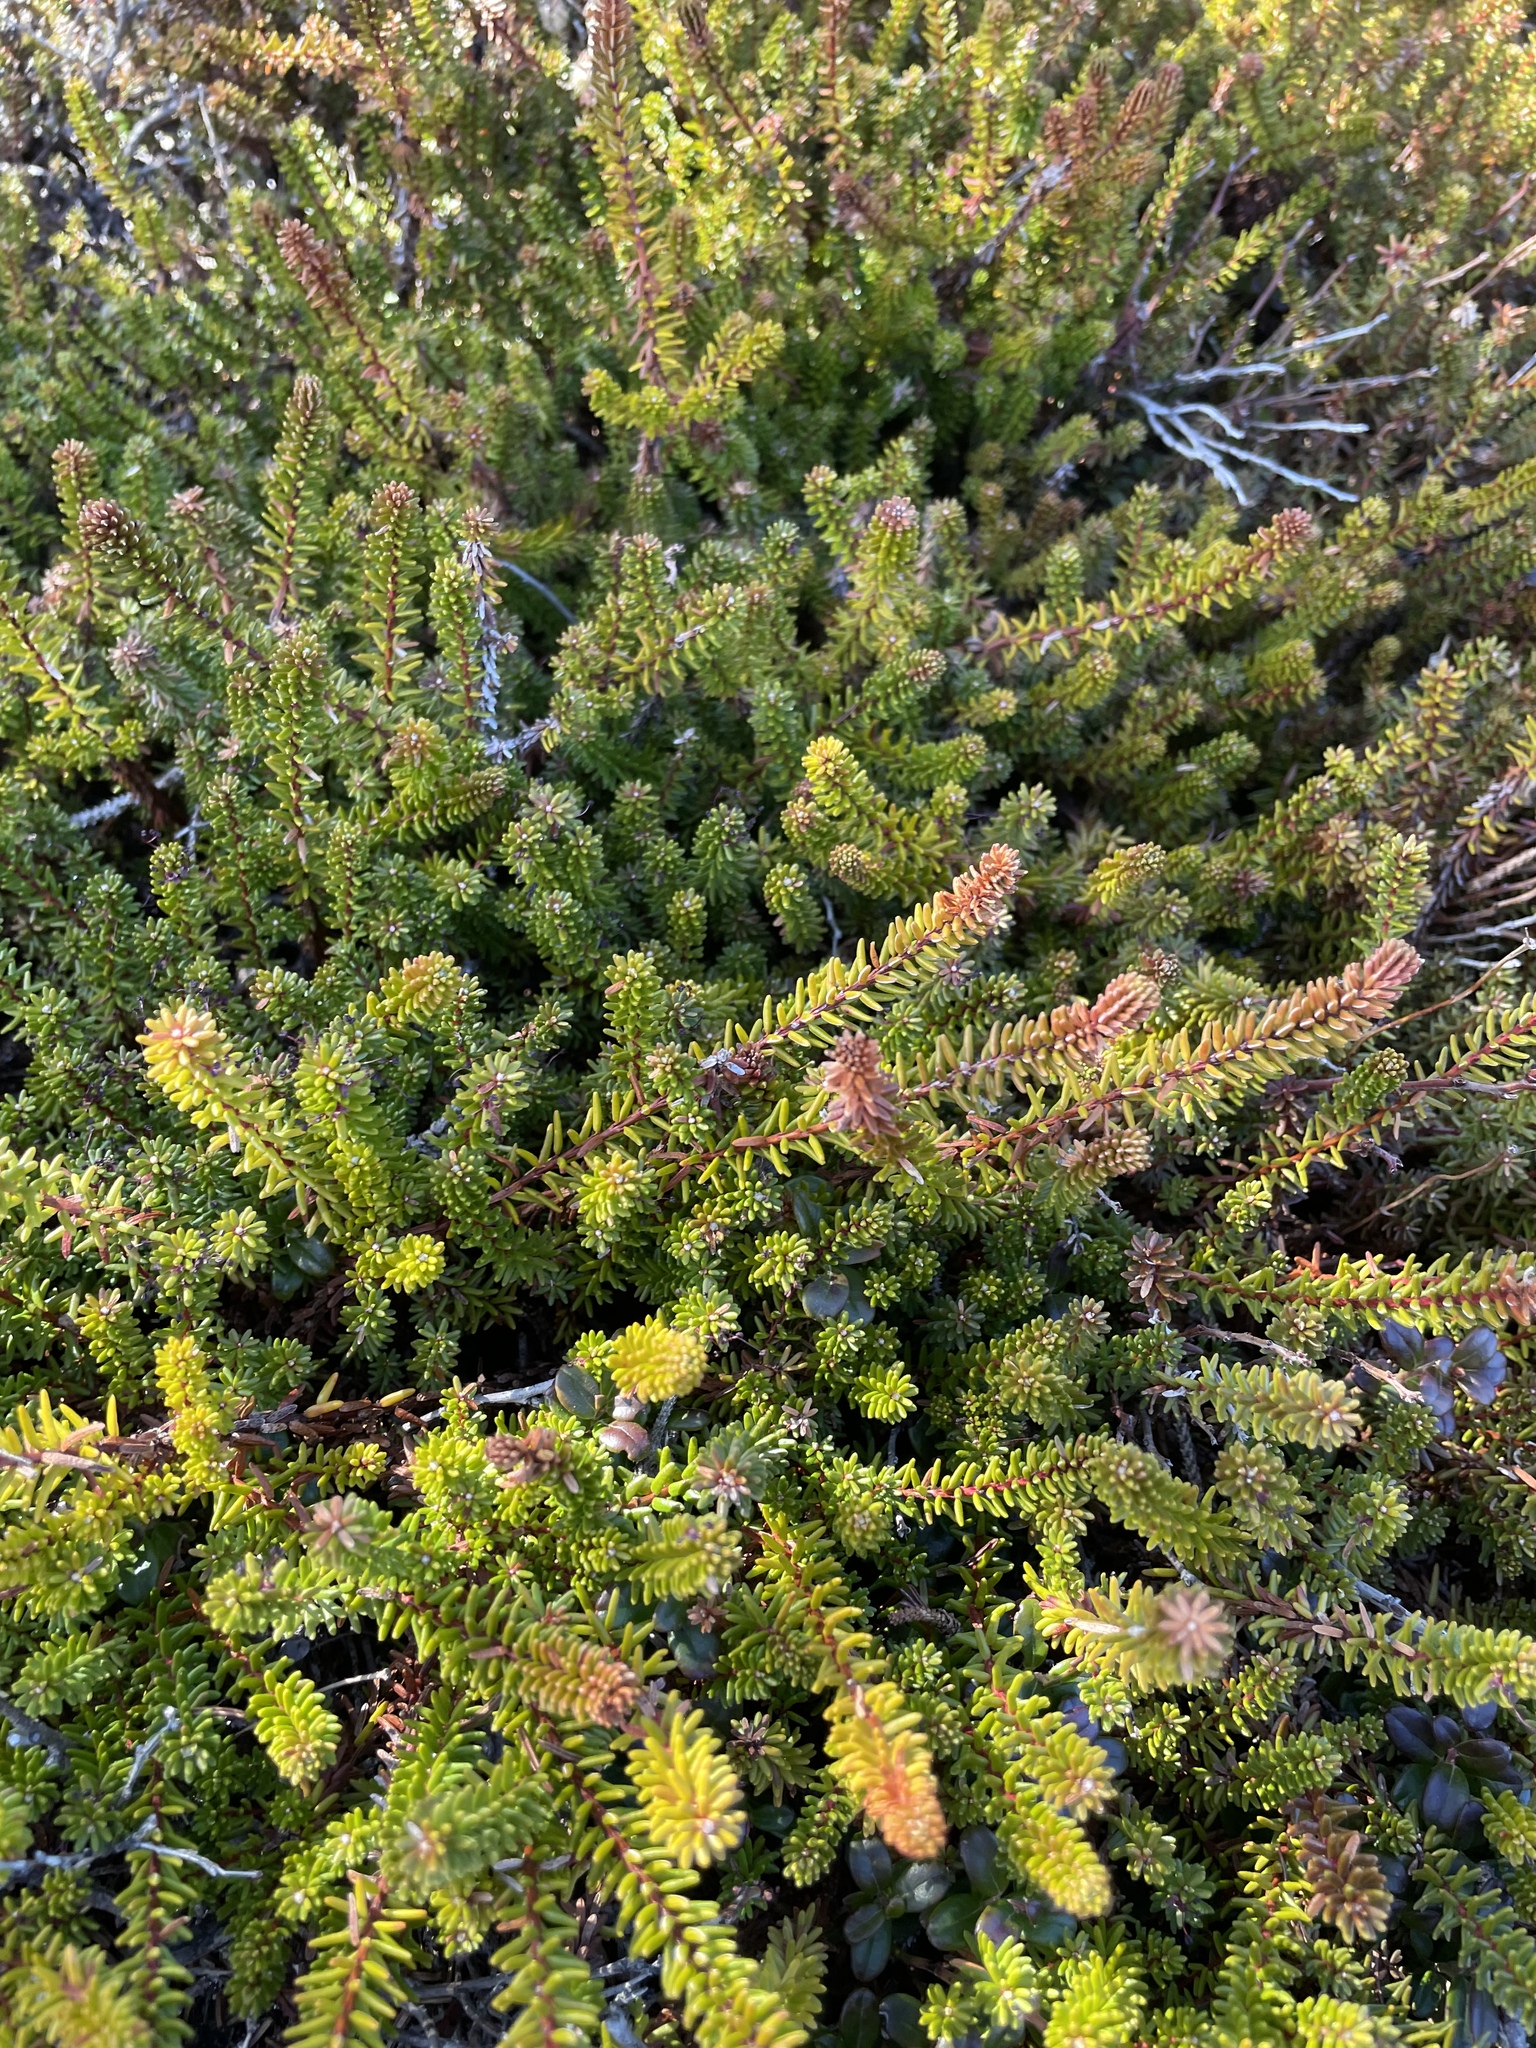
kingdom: Plantae
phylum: Tracheophyta
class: Magnoliopsida
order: Ericales
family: Ericaceae
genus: Empetrum
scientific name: Empetrum nigrum
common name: Black crowberry
